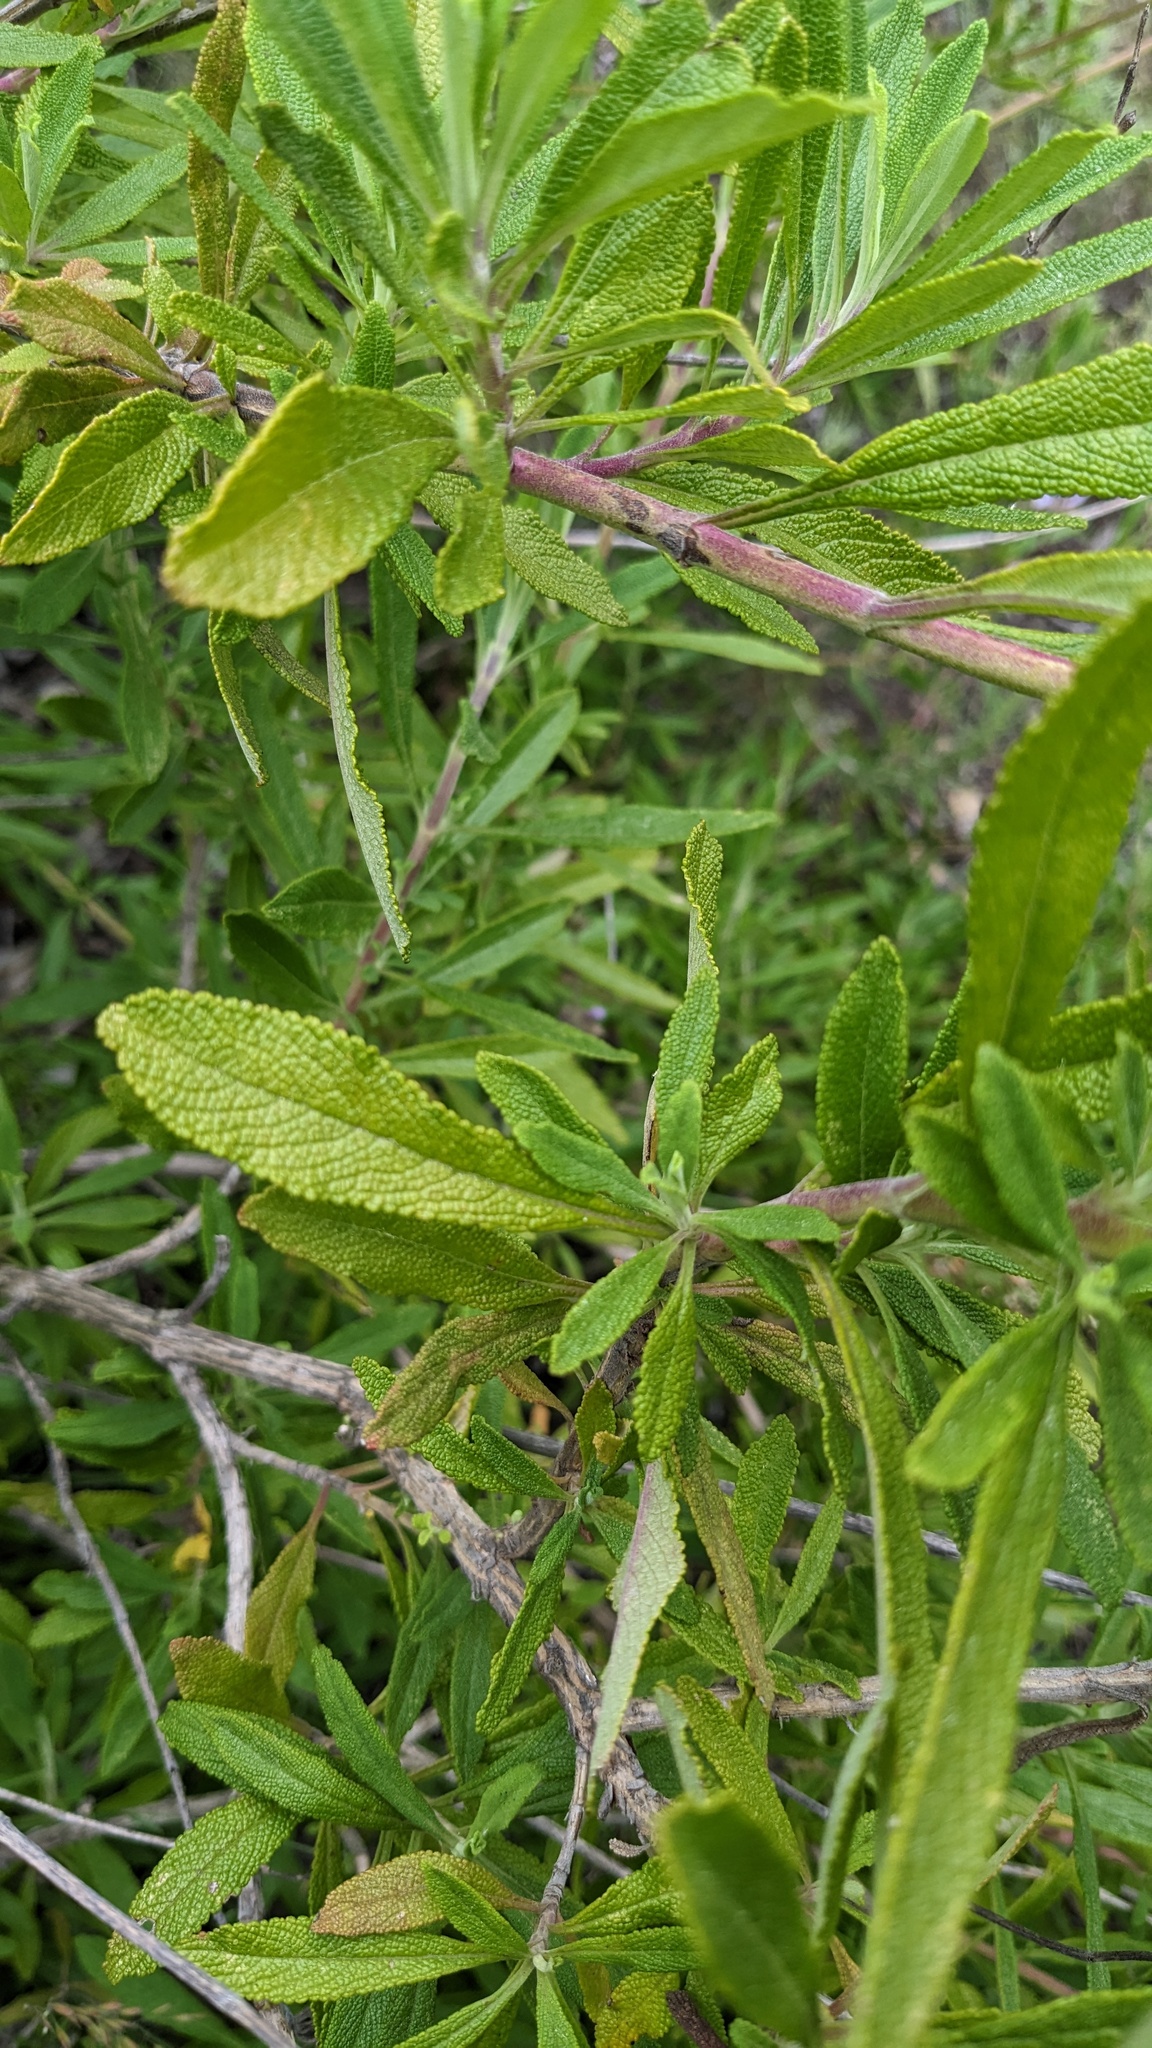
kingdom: Plantae
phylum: Tracheophyta
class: Magnoliopsida
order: Lamiales
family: Lamiaceae
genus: Salvia
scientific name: Salvia mellifera
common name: Black sage
